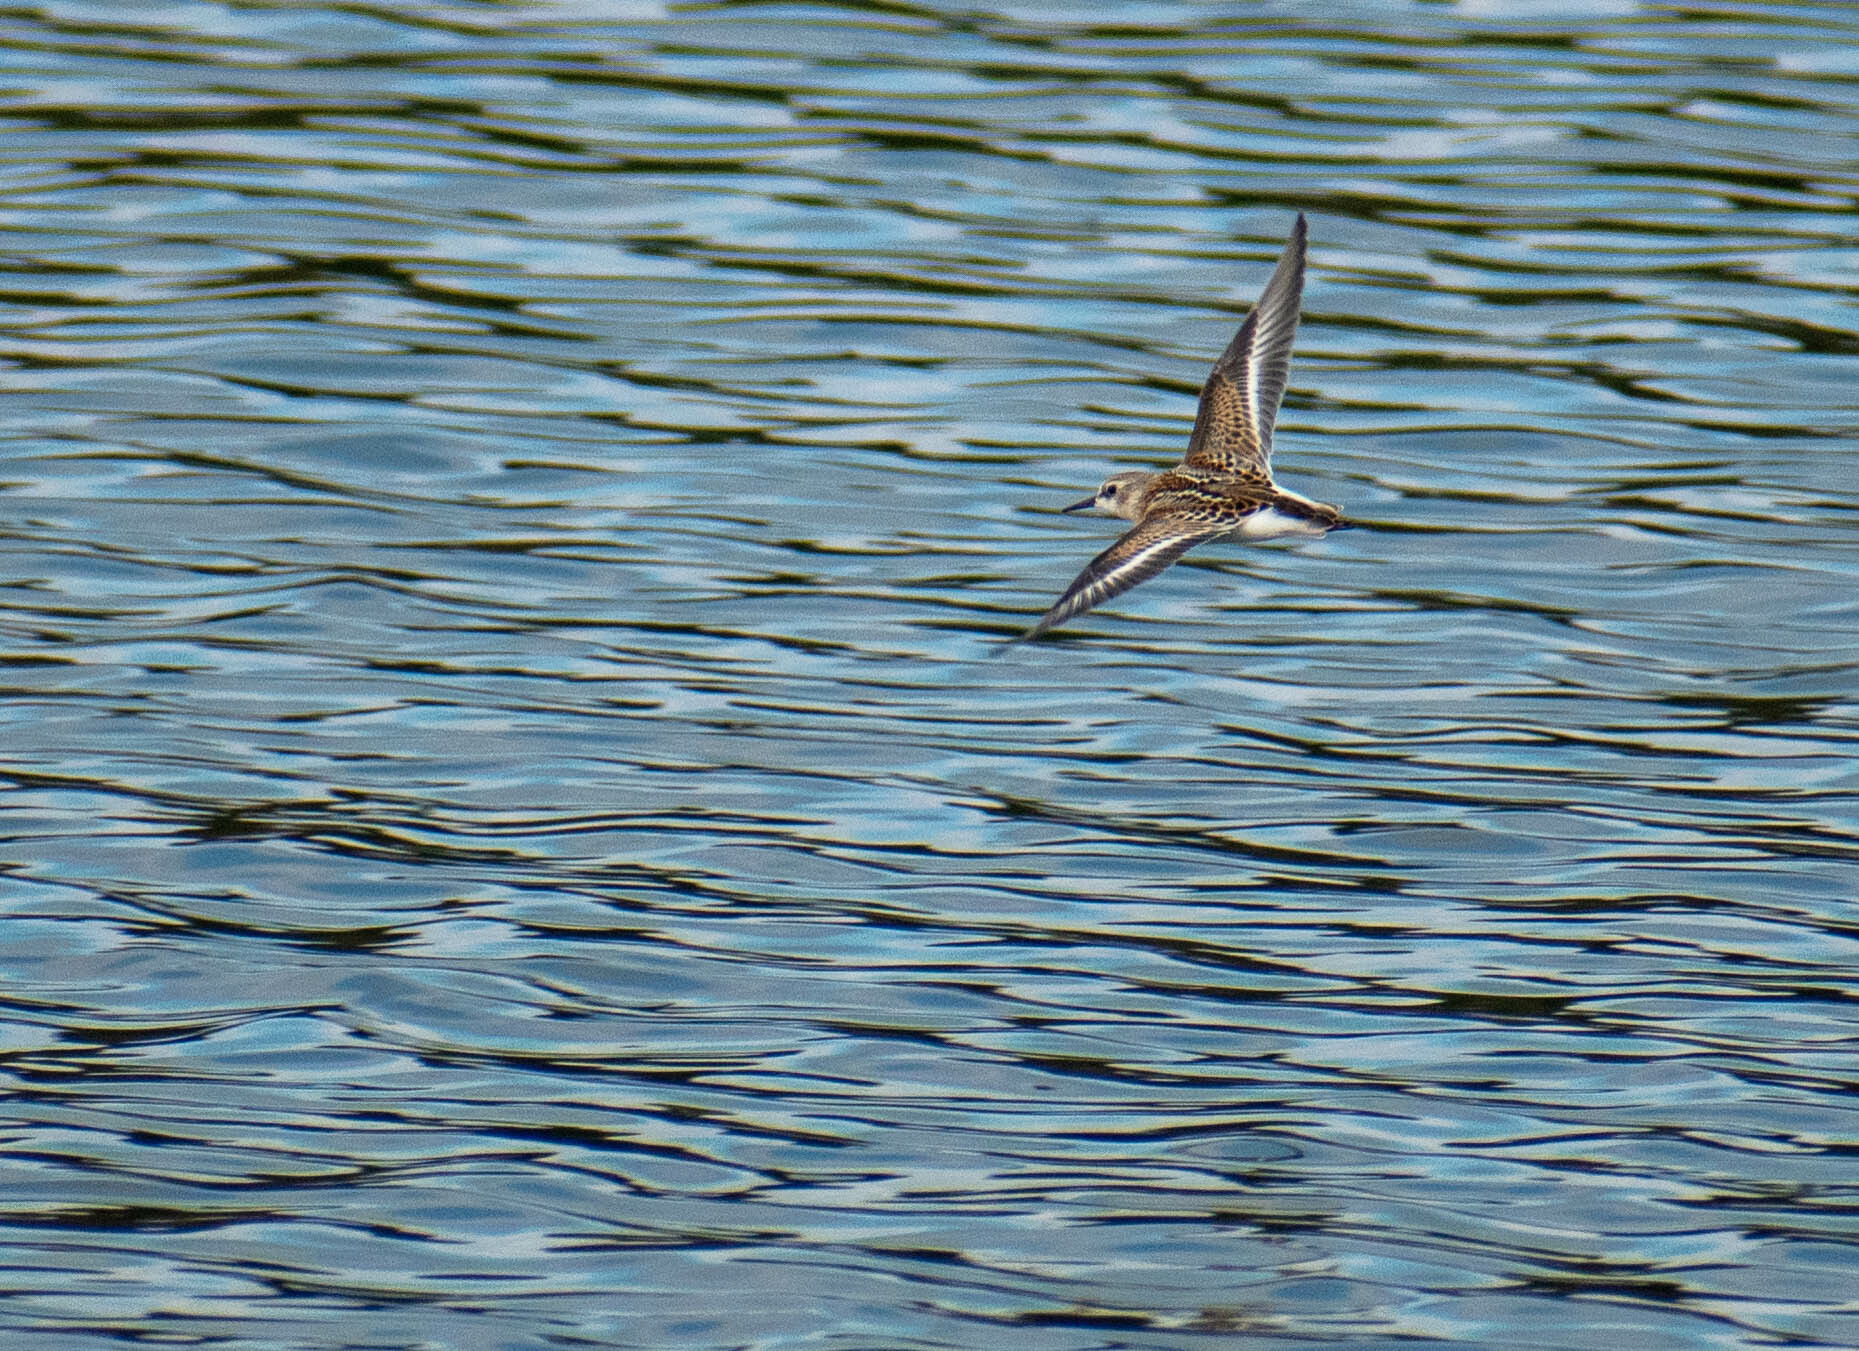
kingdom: Animalia
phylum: Chordata
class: Aves
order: Charadriiformes
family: Scolopacidae
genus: Calidris
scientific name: Calidris minuta
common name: Little stint
